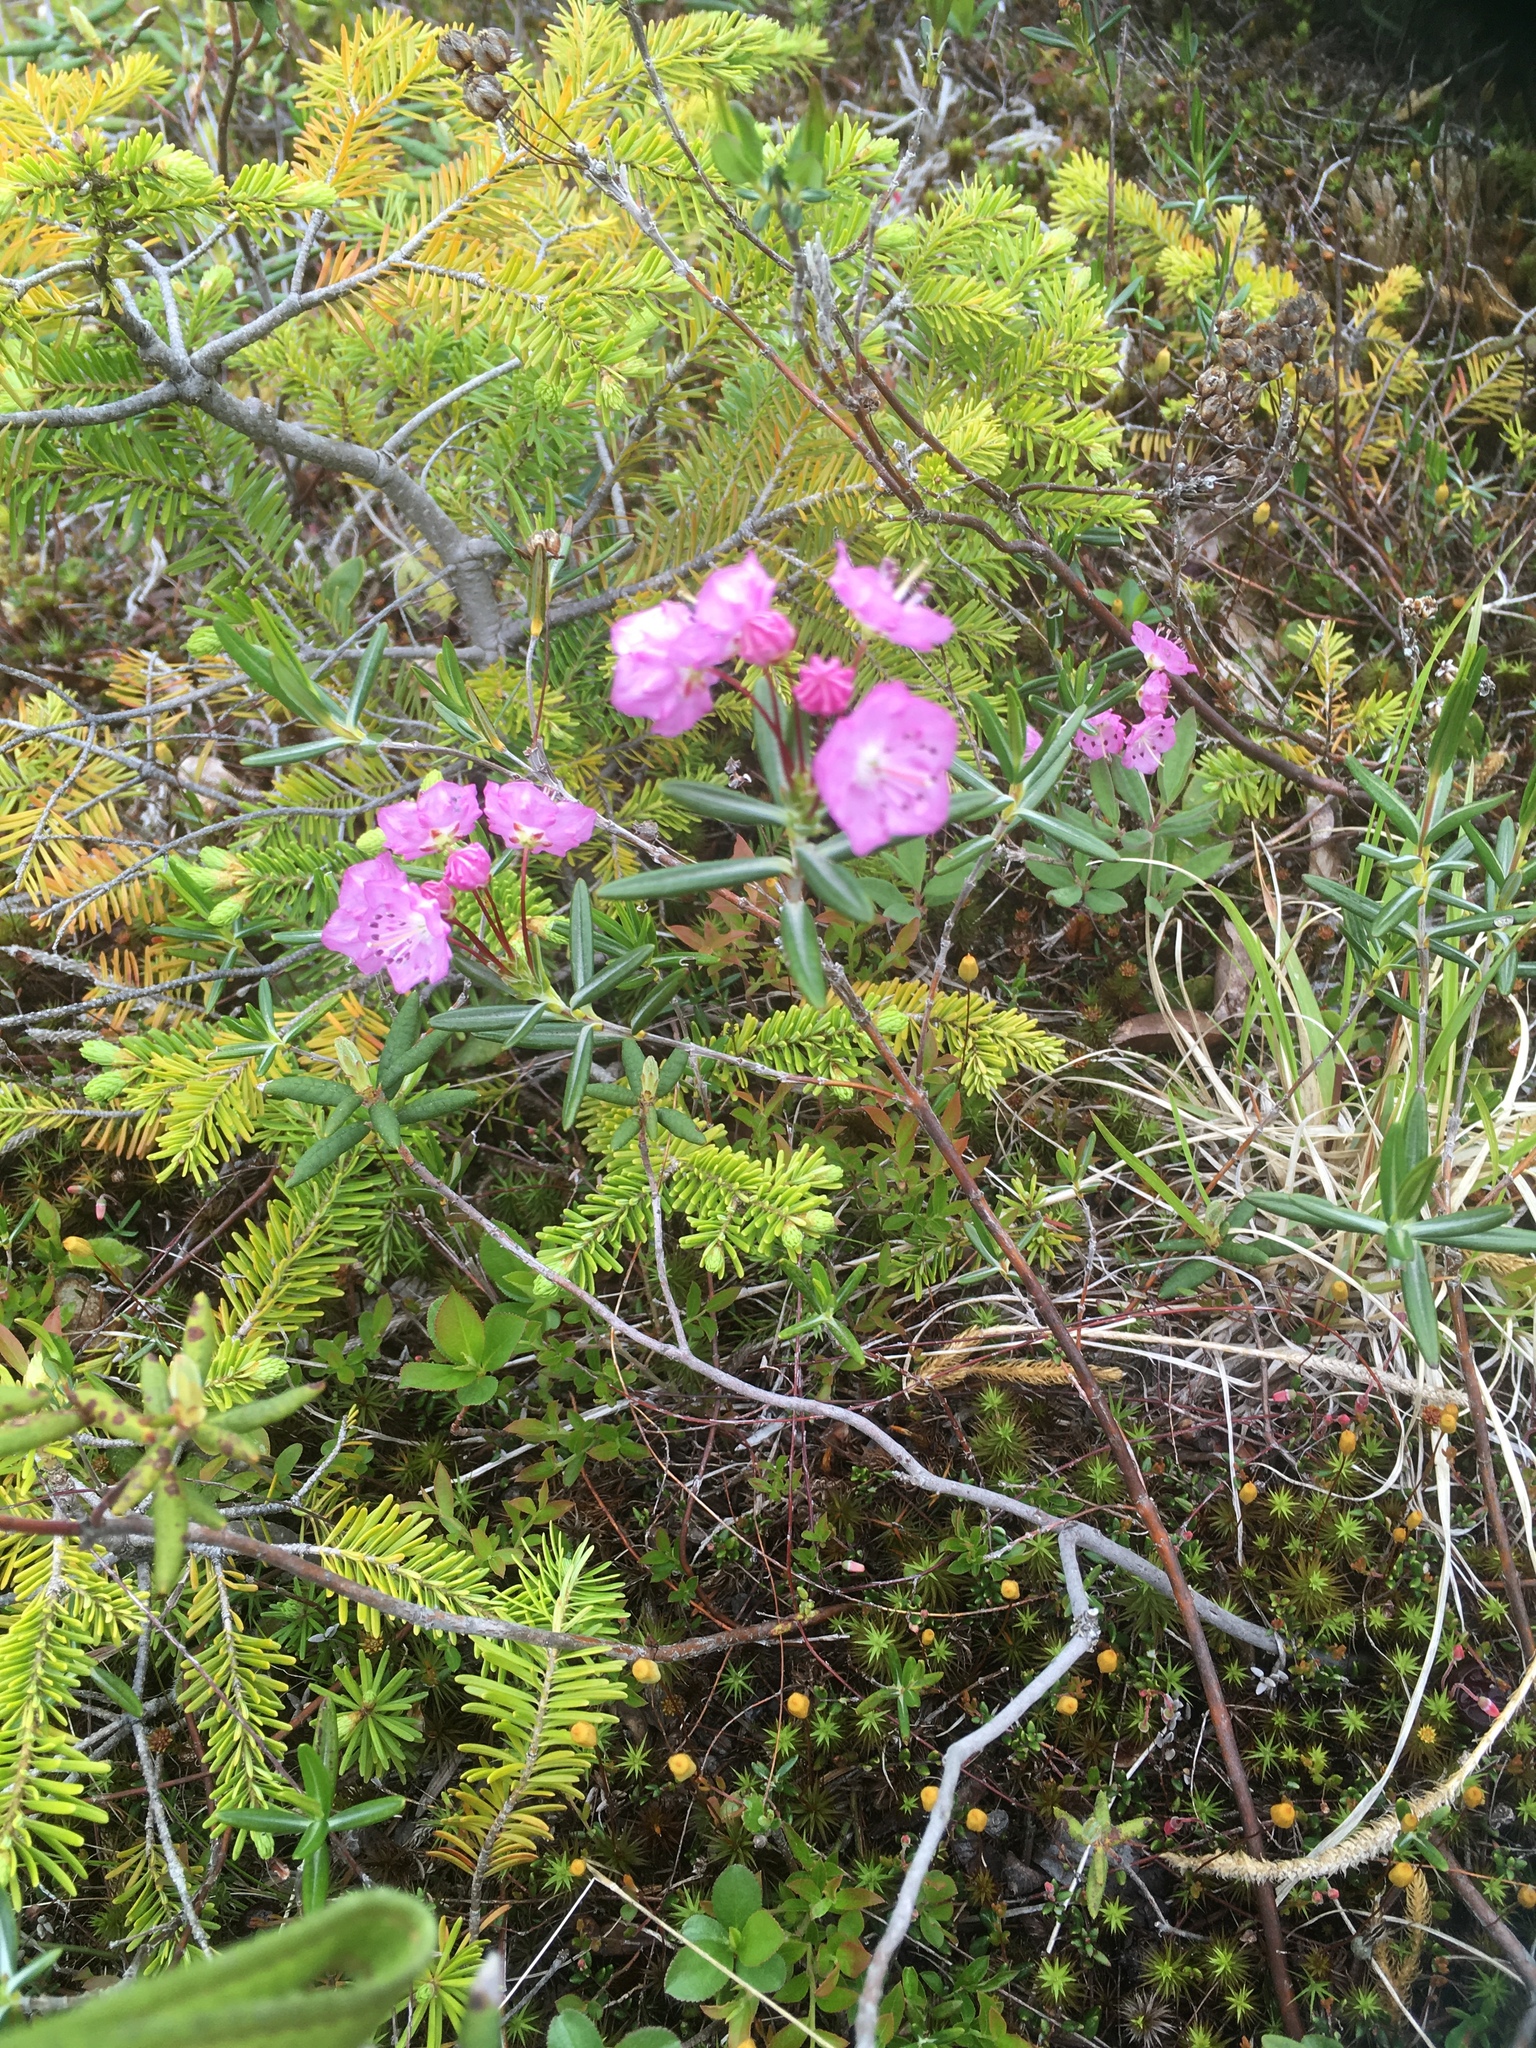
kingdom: Plantae
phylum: Tracheophyta
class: Magnoliopsida
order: Ericales
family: Ericaceae
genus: Kalmia
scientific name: Kalmia polifolia
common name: Bog-laurel
